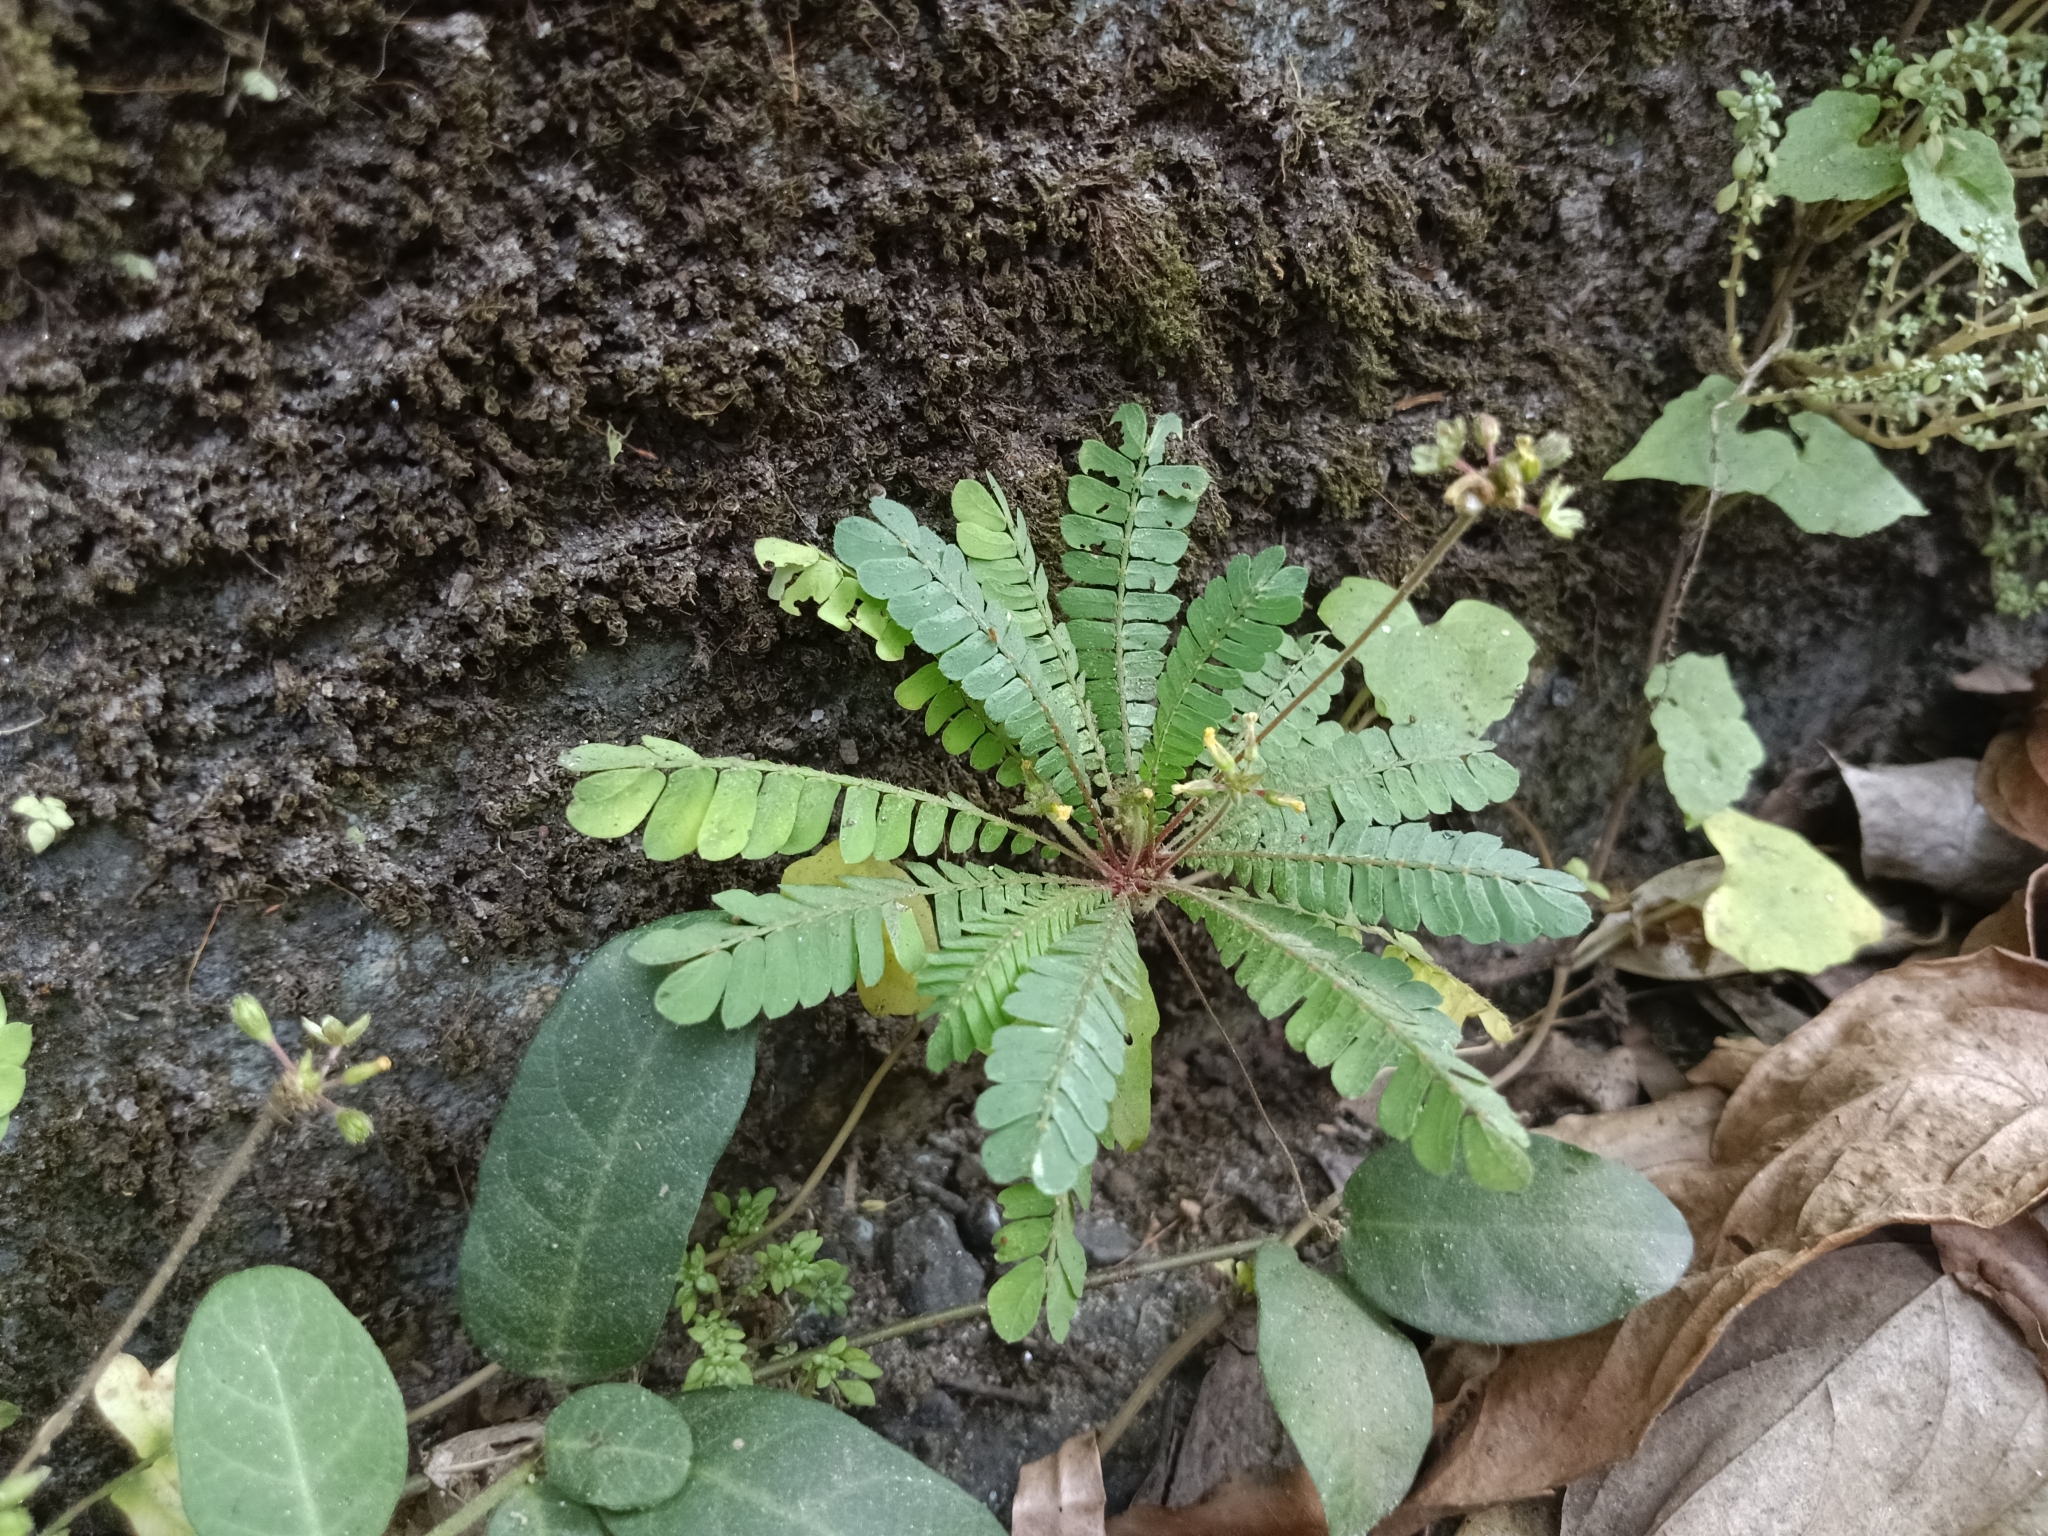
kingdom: Plantae
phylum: Tracheophyta
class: Magnoliopsida
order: Oxalidales
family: Oxalidaceae
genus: Biophytum
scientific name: Biophytum sensitivum
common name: Lifeplant
